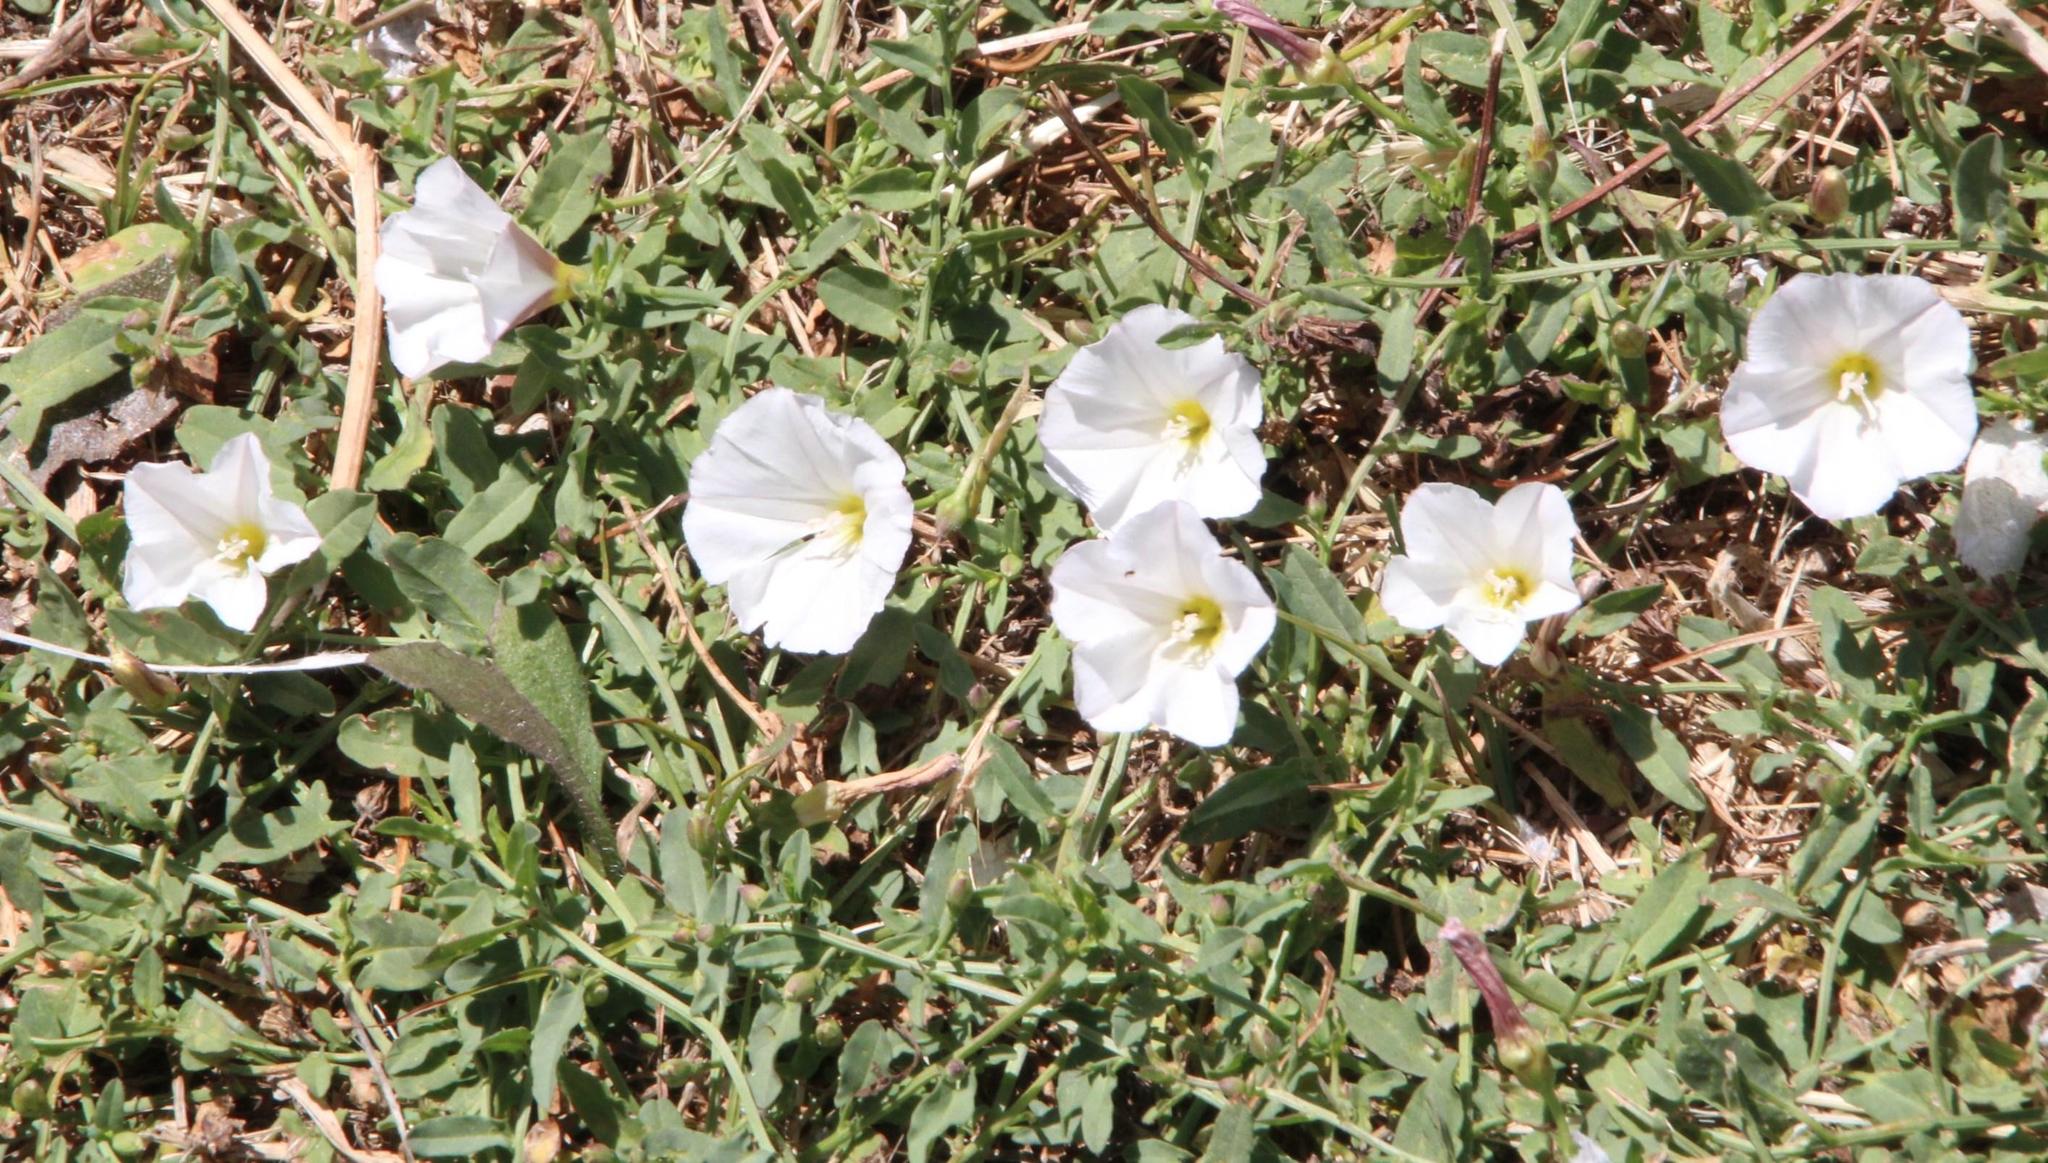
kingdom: Plantae
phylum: Tracheophyta
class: Magnoliopsida
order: Solanales
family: Convolvulaceae
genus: Convolvulus
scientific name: Convolvulus arvensis
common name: Field bindweed
